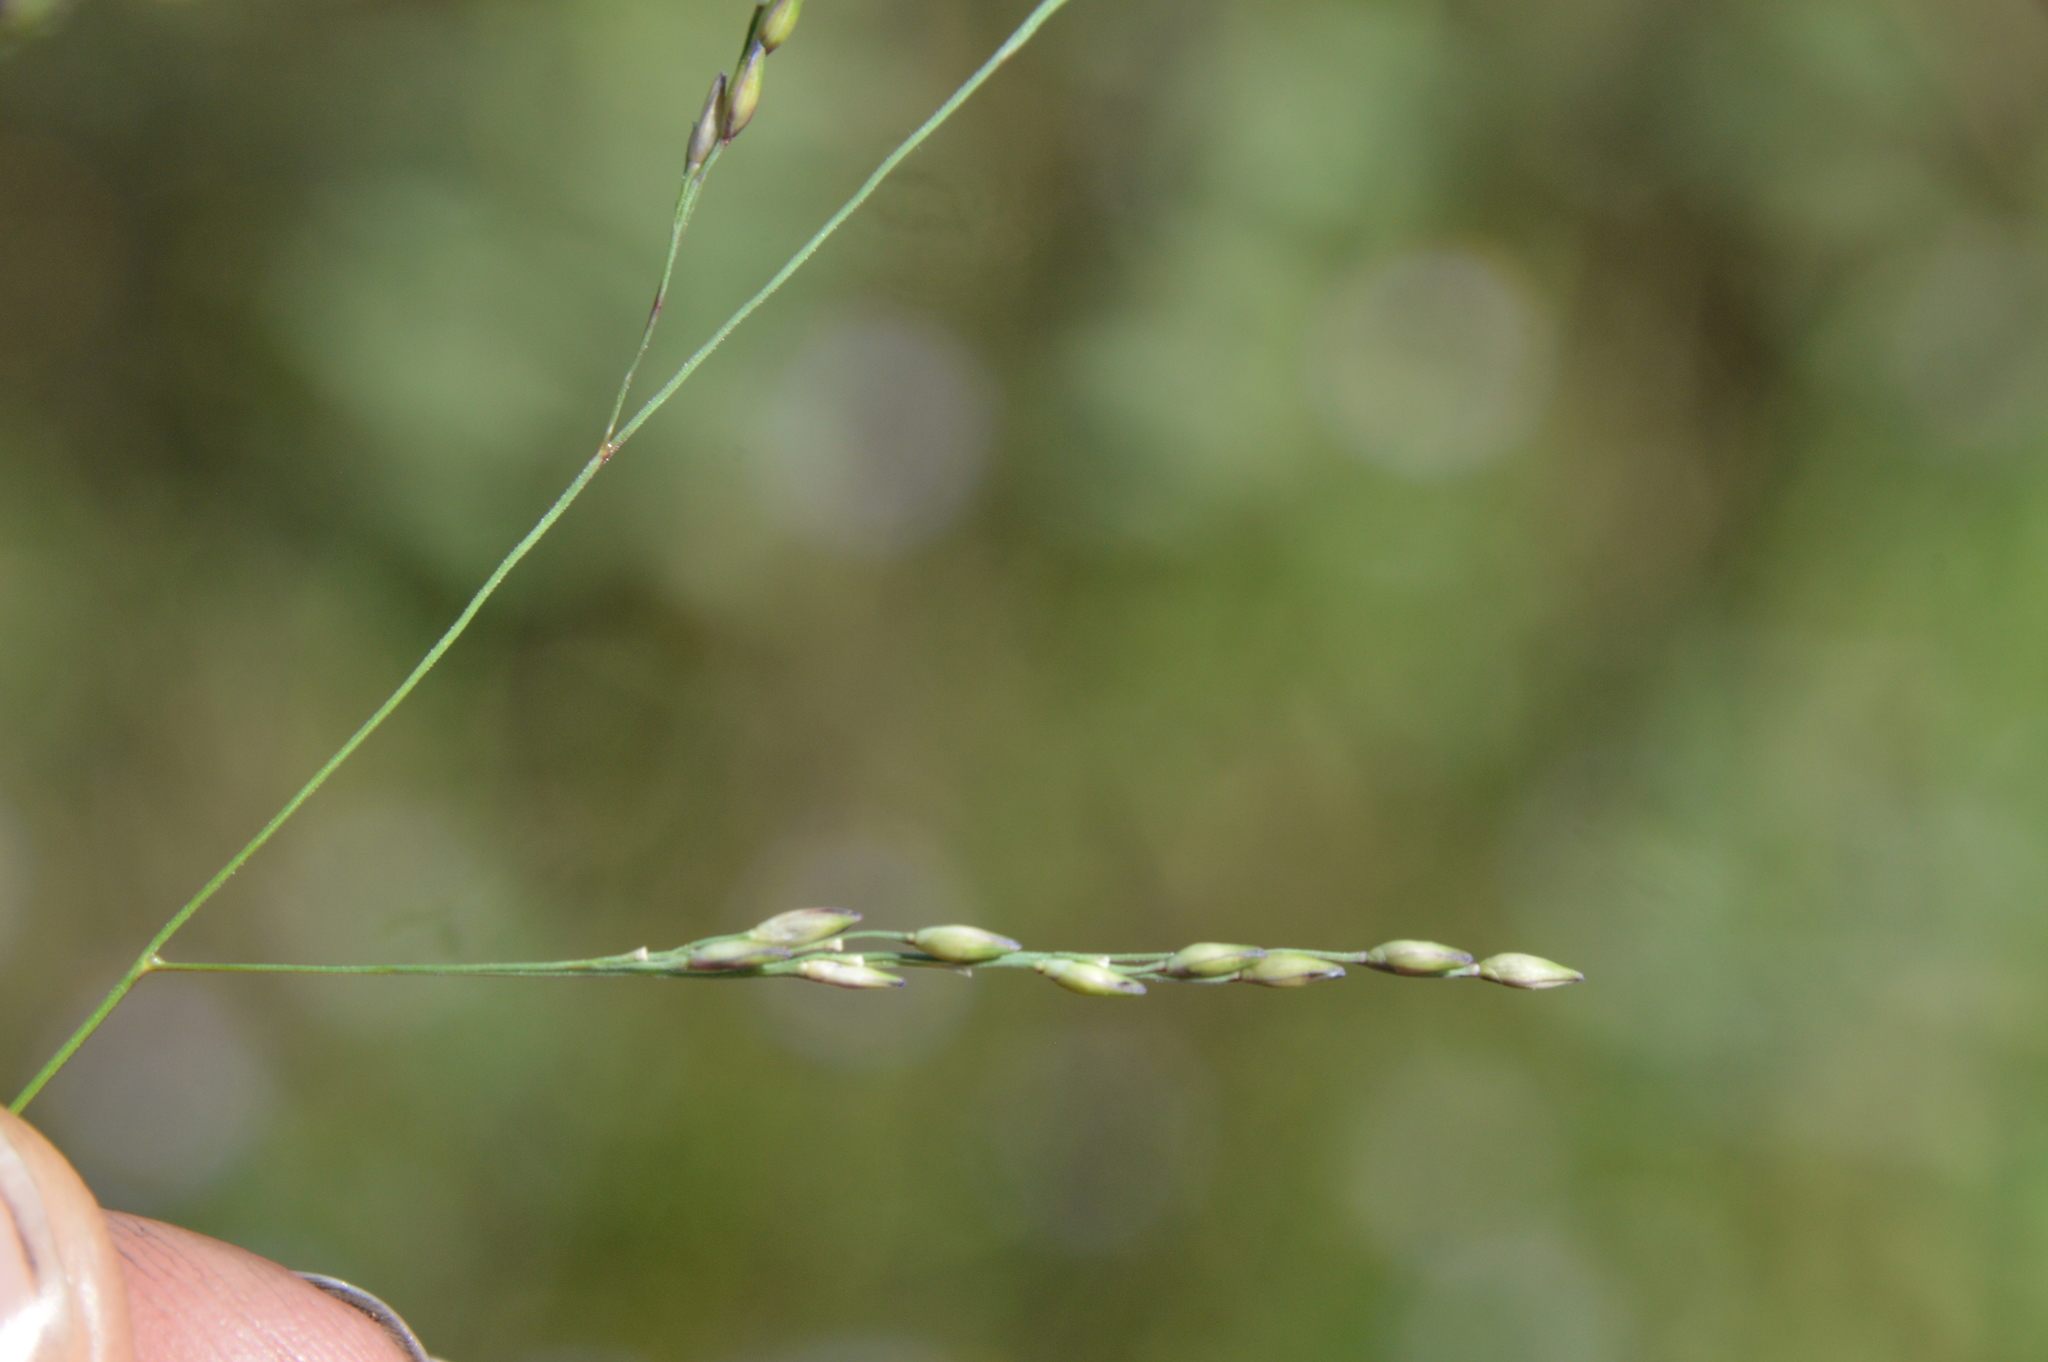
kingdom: Plantae
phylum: Tracheophyta
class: Liliopsida
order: Poales
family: Poaceae
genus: Panicum
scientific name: Panicum dichotomiflorum
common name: Autumn millet
